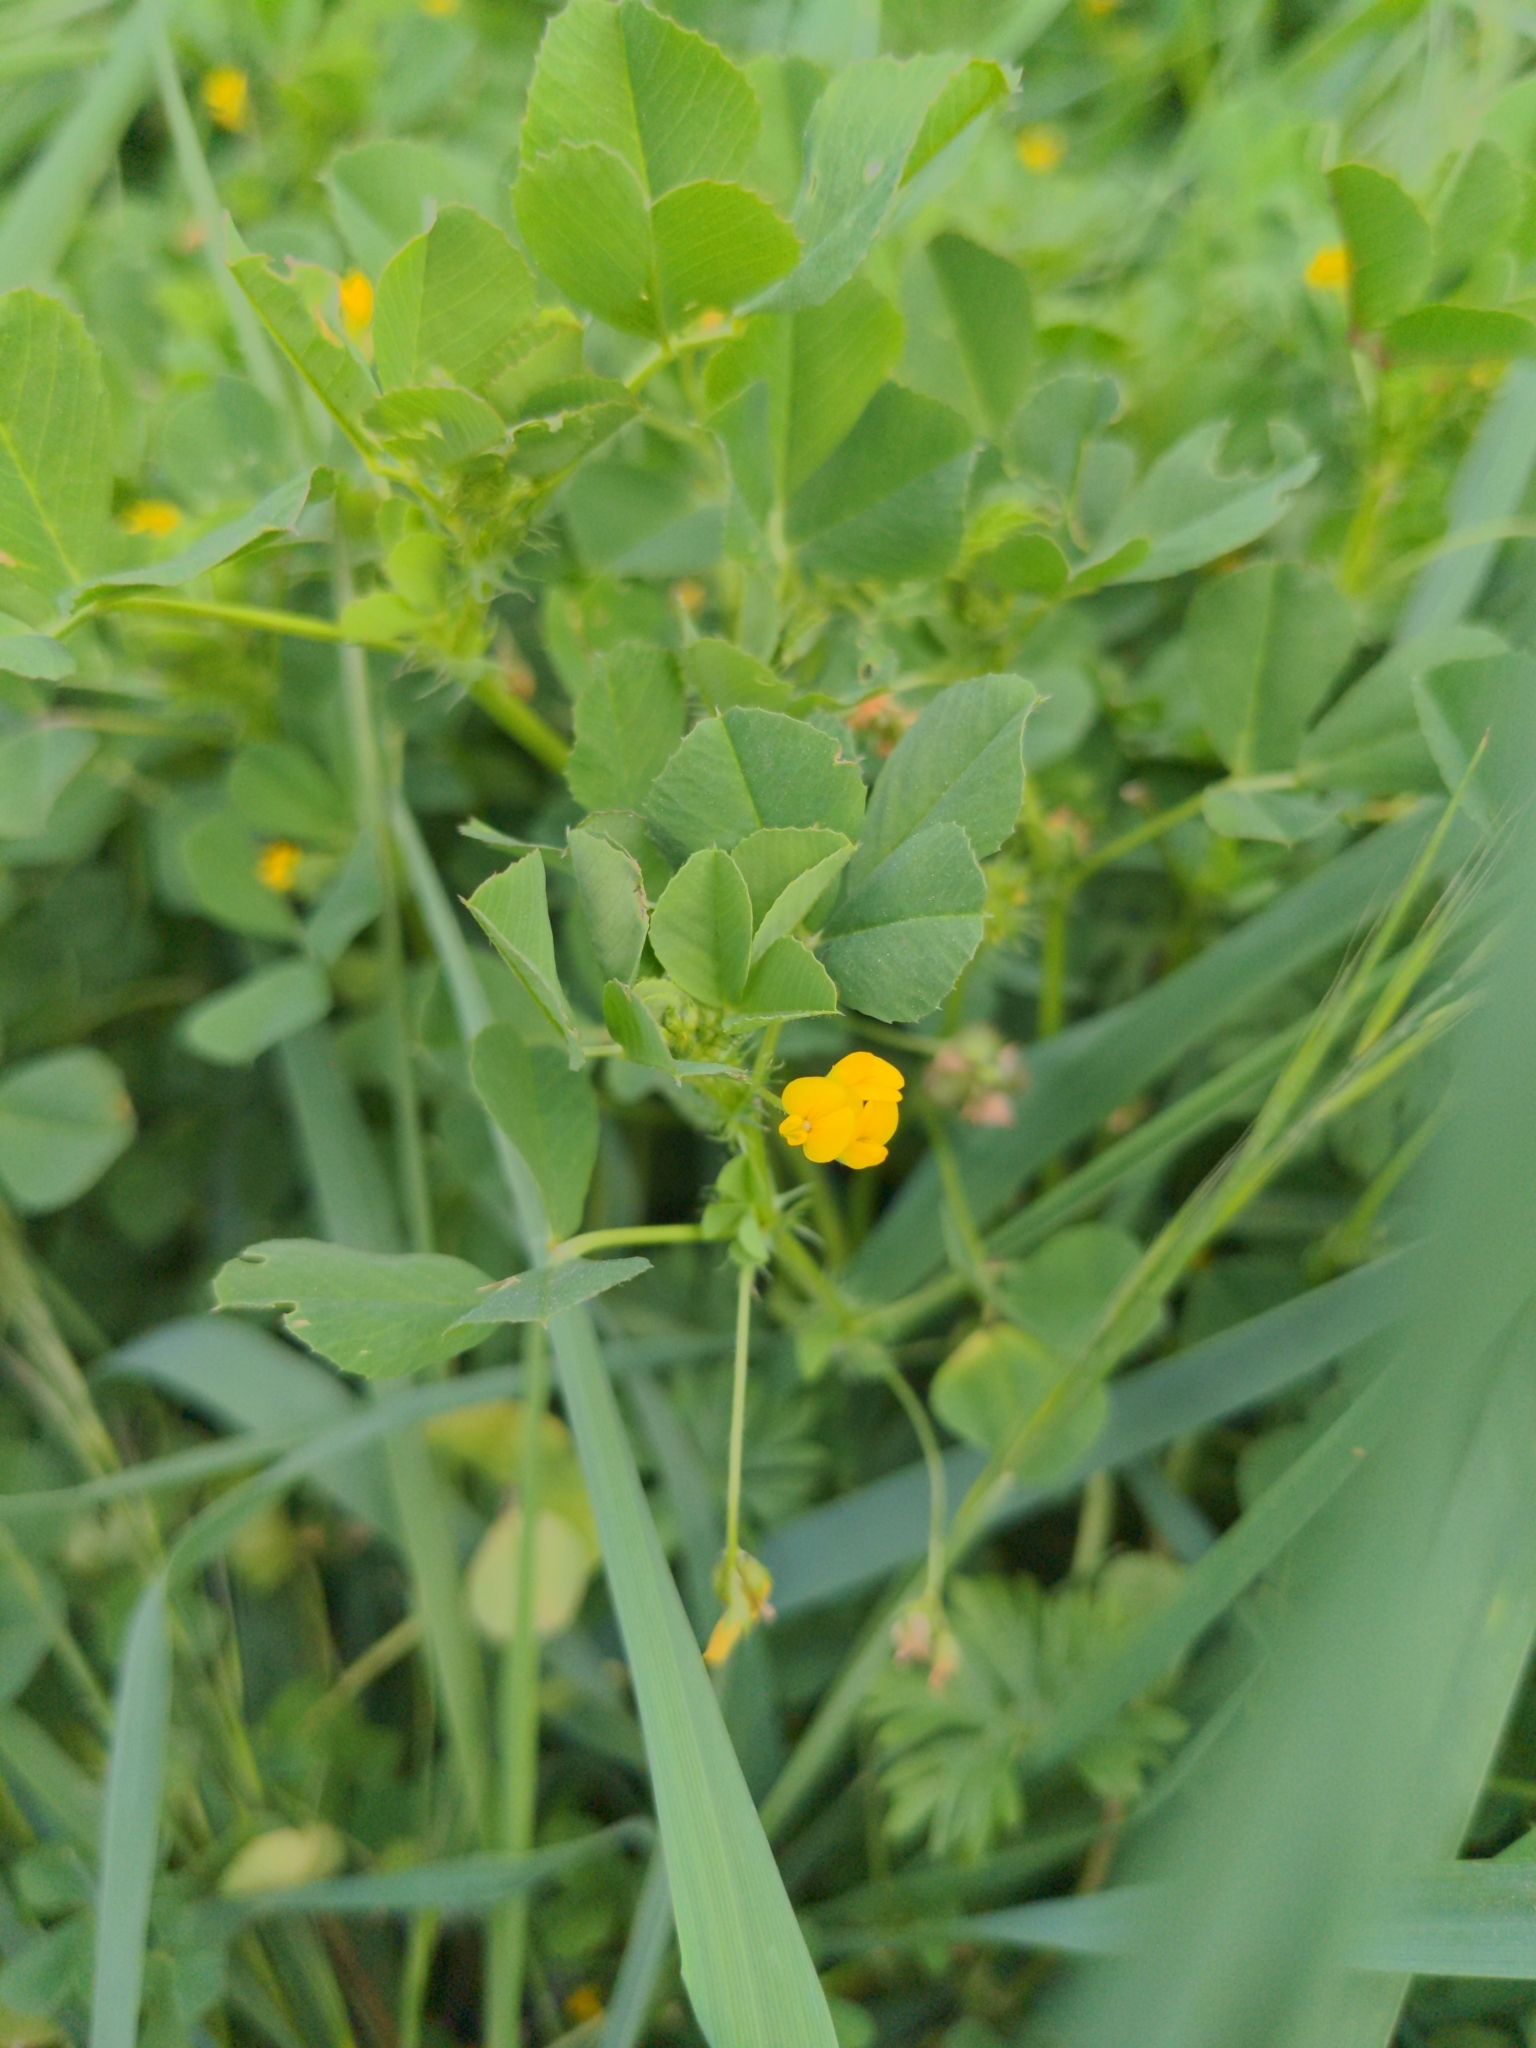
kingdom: Plantae
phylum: Tracheophyta
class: Magnoliopsida
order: Fabales
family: Fabaceae
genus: Medicago
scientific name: Medicago polymorpha
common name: Burclover
